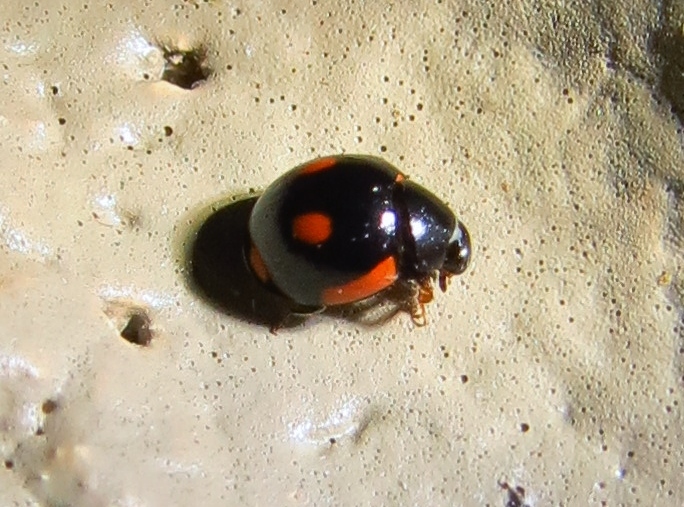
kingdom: Animalia
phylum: Arthropoda
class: Insecta
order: Coleoptera
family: Coccinellidae
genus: Hyperaspis
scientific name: Hyperaspis lateralis
